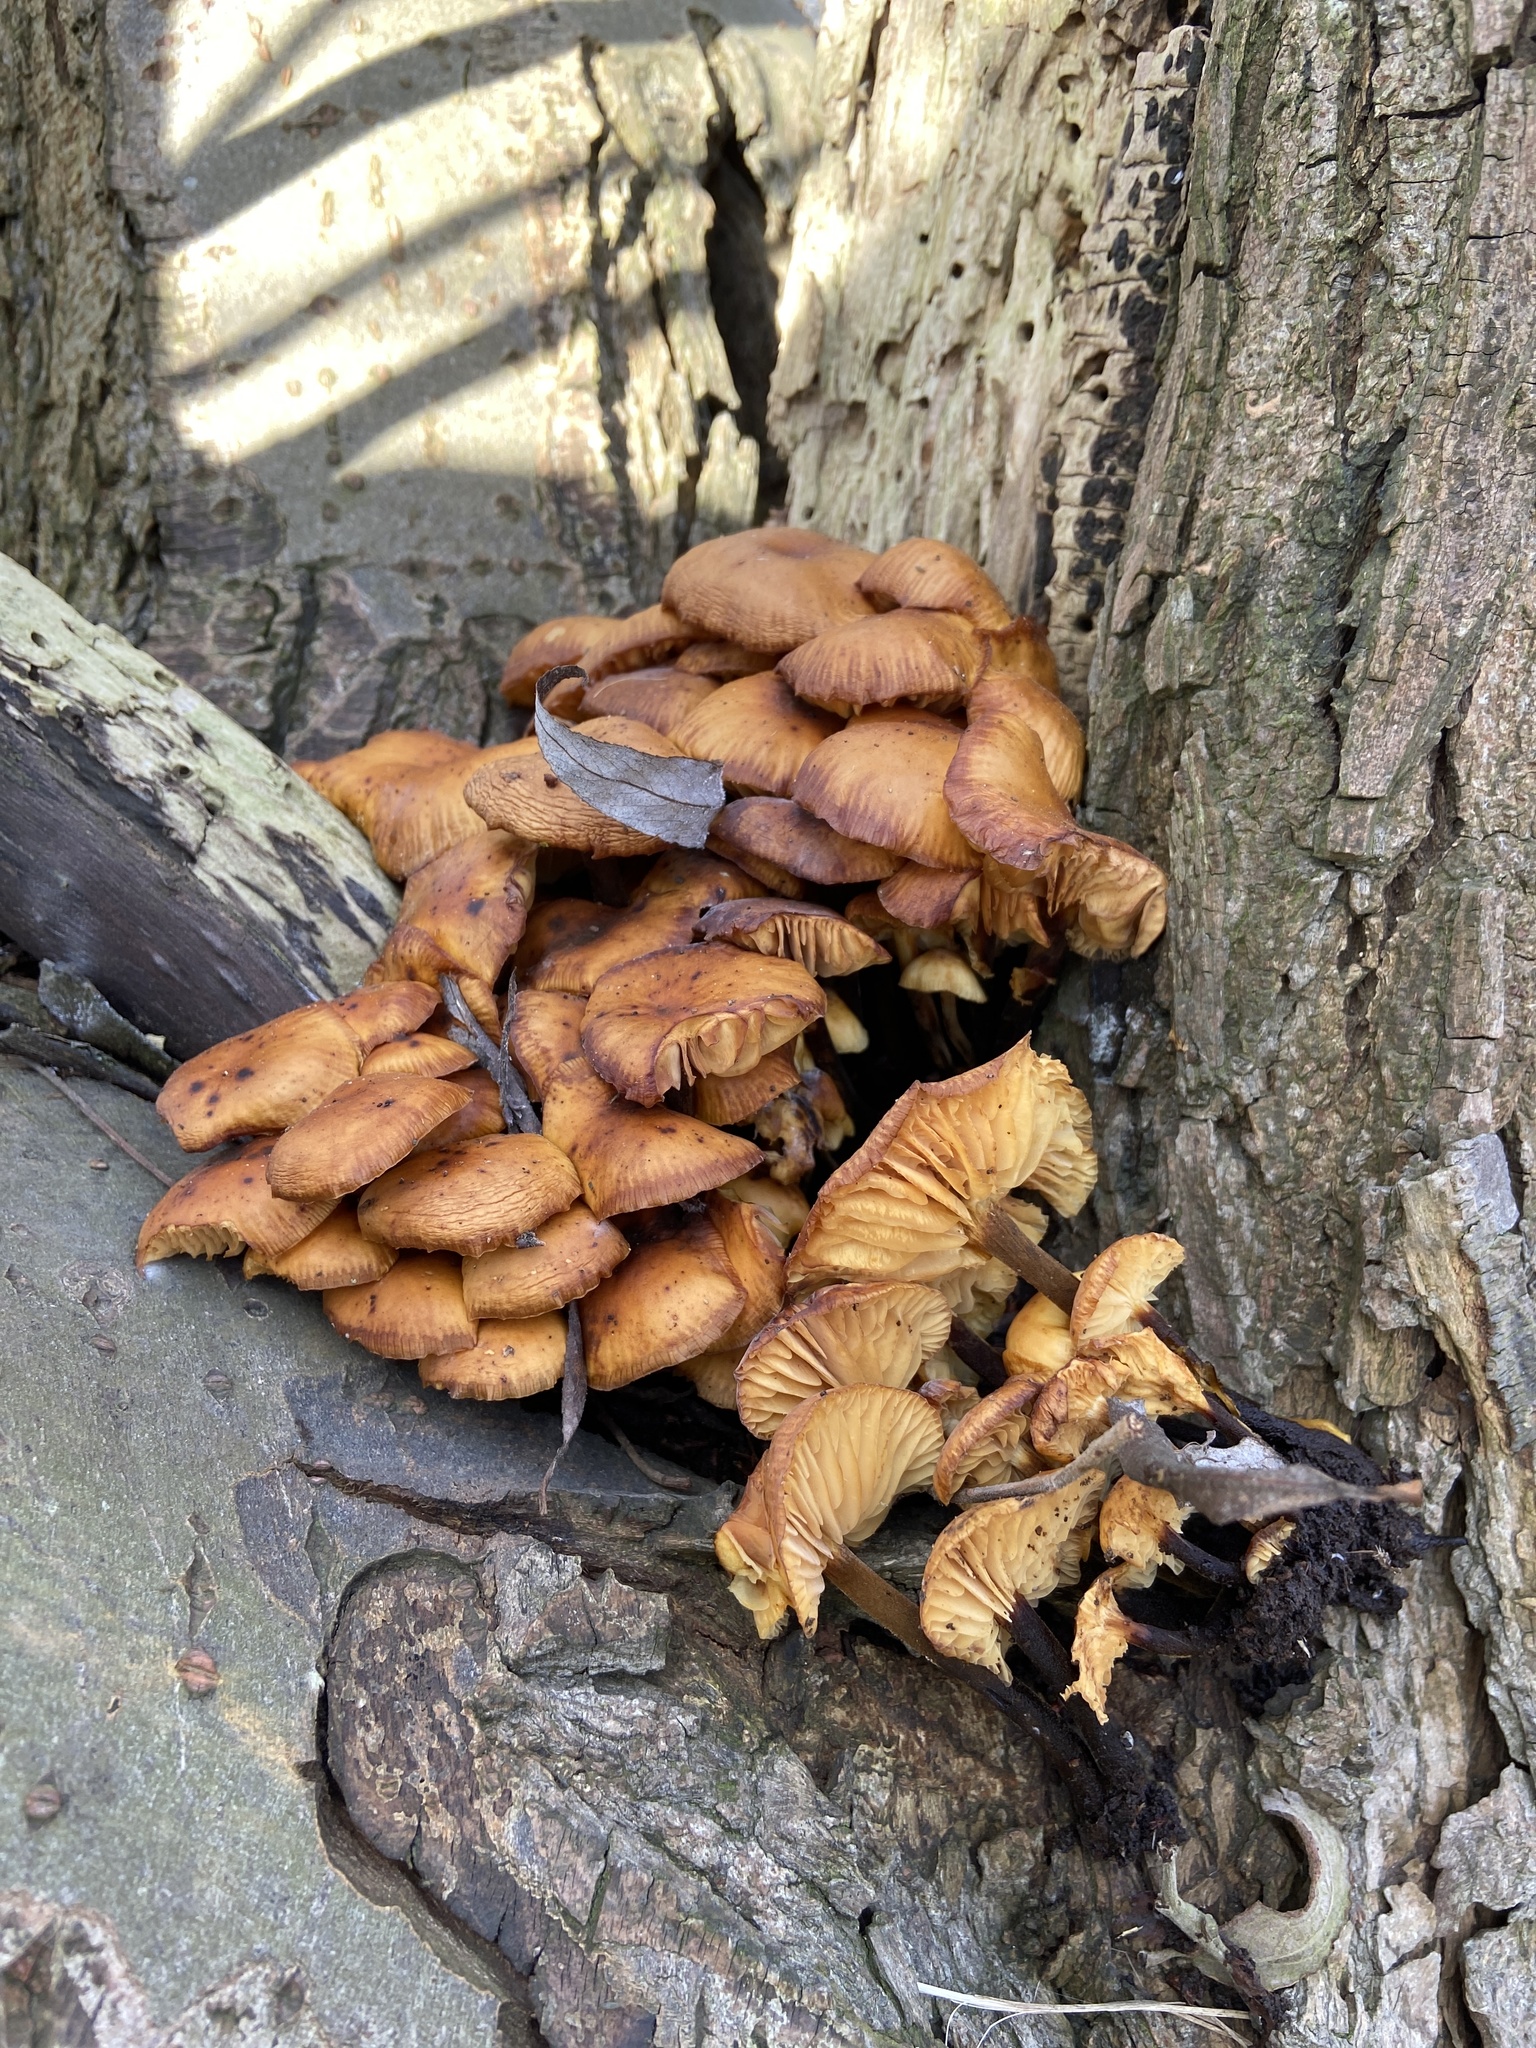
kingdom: Fungi
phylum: Basidiomycota
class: Agaricomycetes
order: Agaricales
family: Physalacriaceae
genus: Flammulina
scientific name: Flammulina
